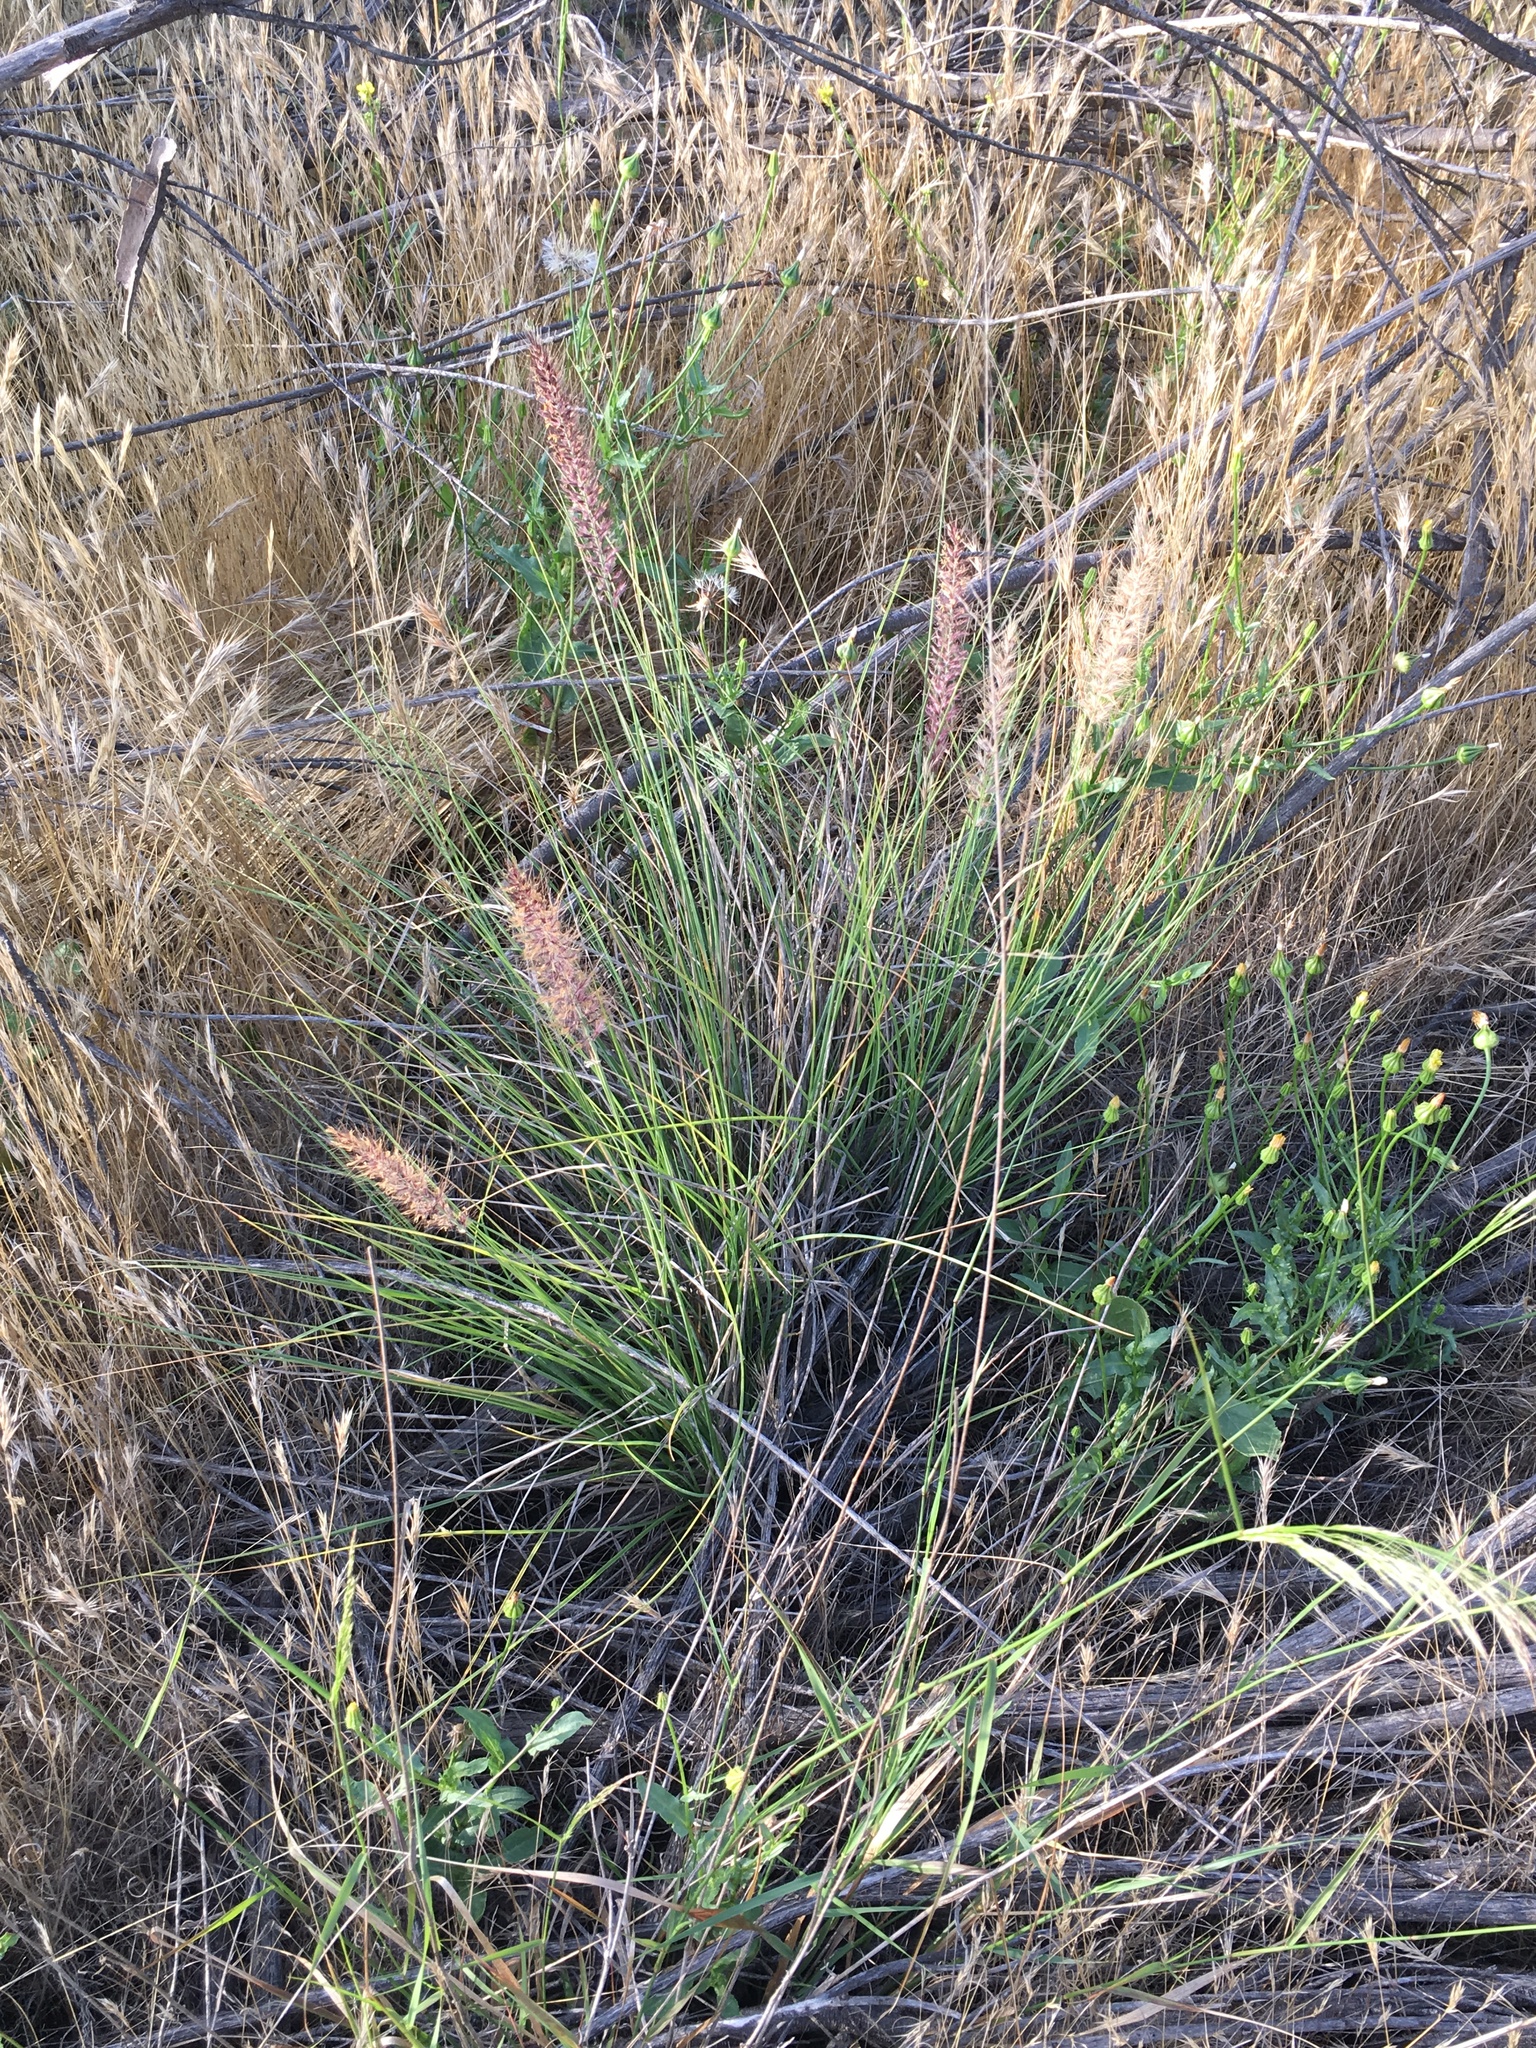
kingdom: Plantae
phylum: Tracheophyta
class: Liliopsida
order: Poales
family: Poaceae
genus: Cenchrus
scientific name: Cenchrus setaceus
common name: Crimson fountaingrass
